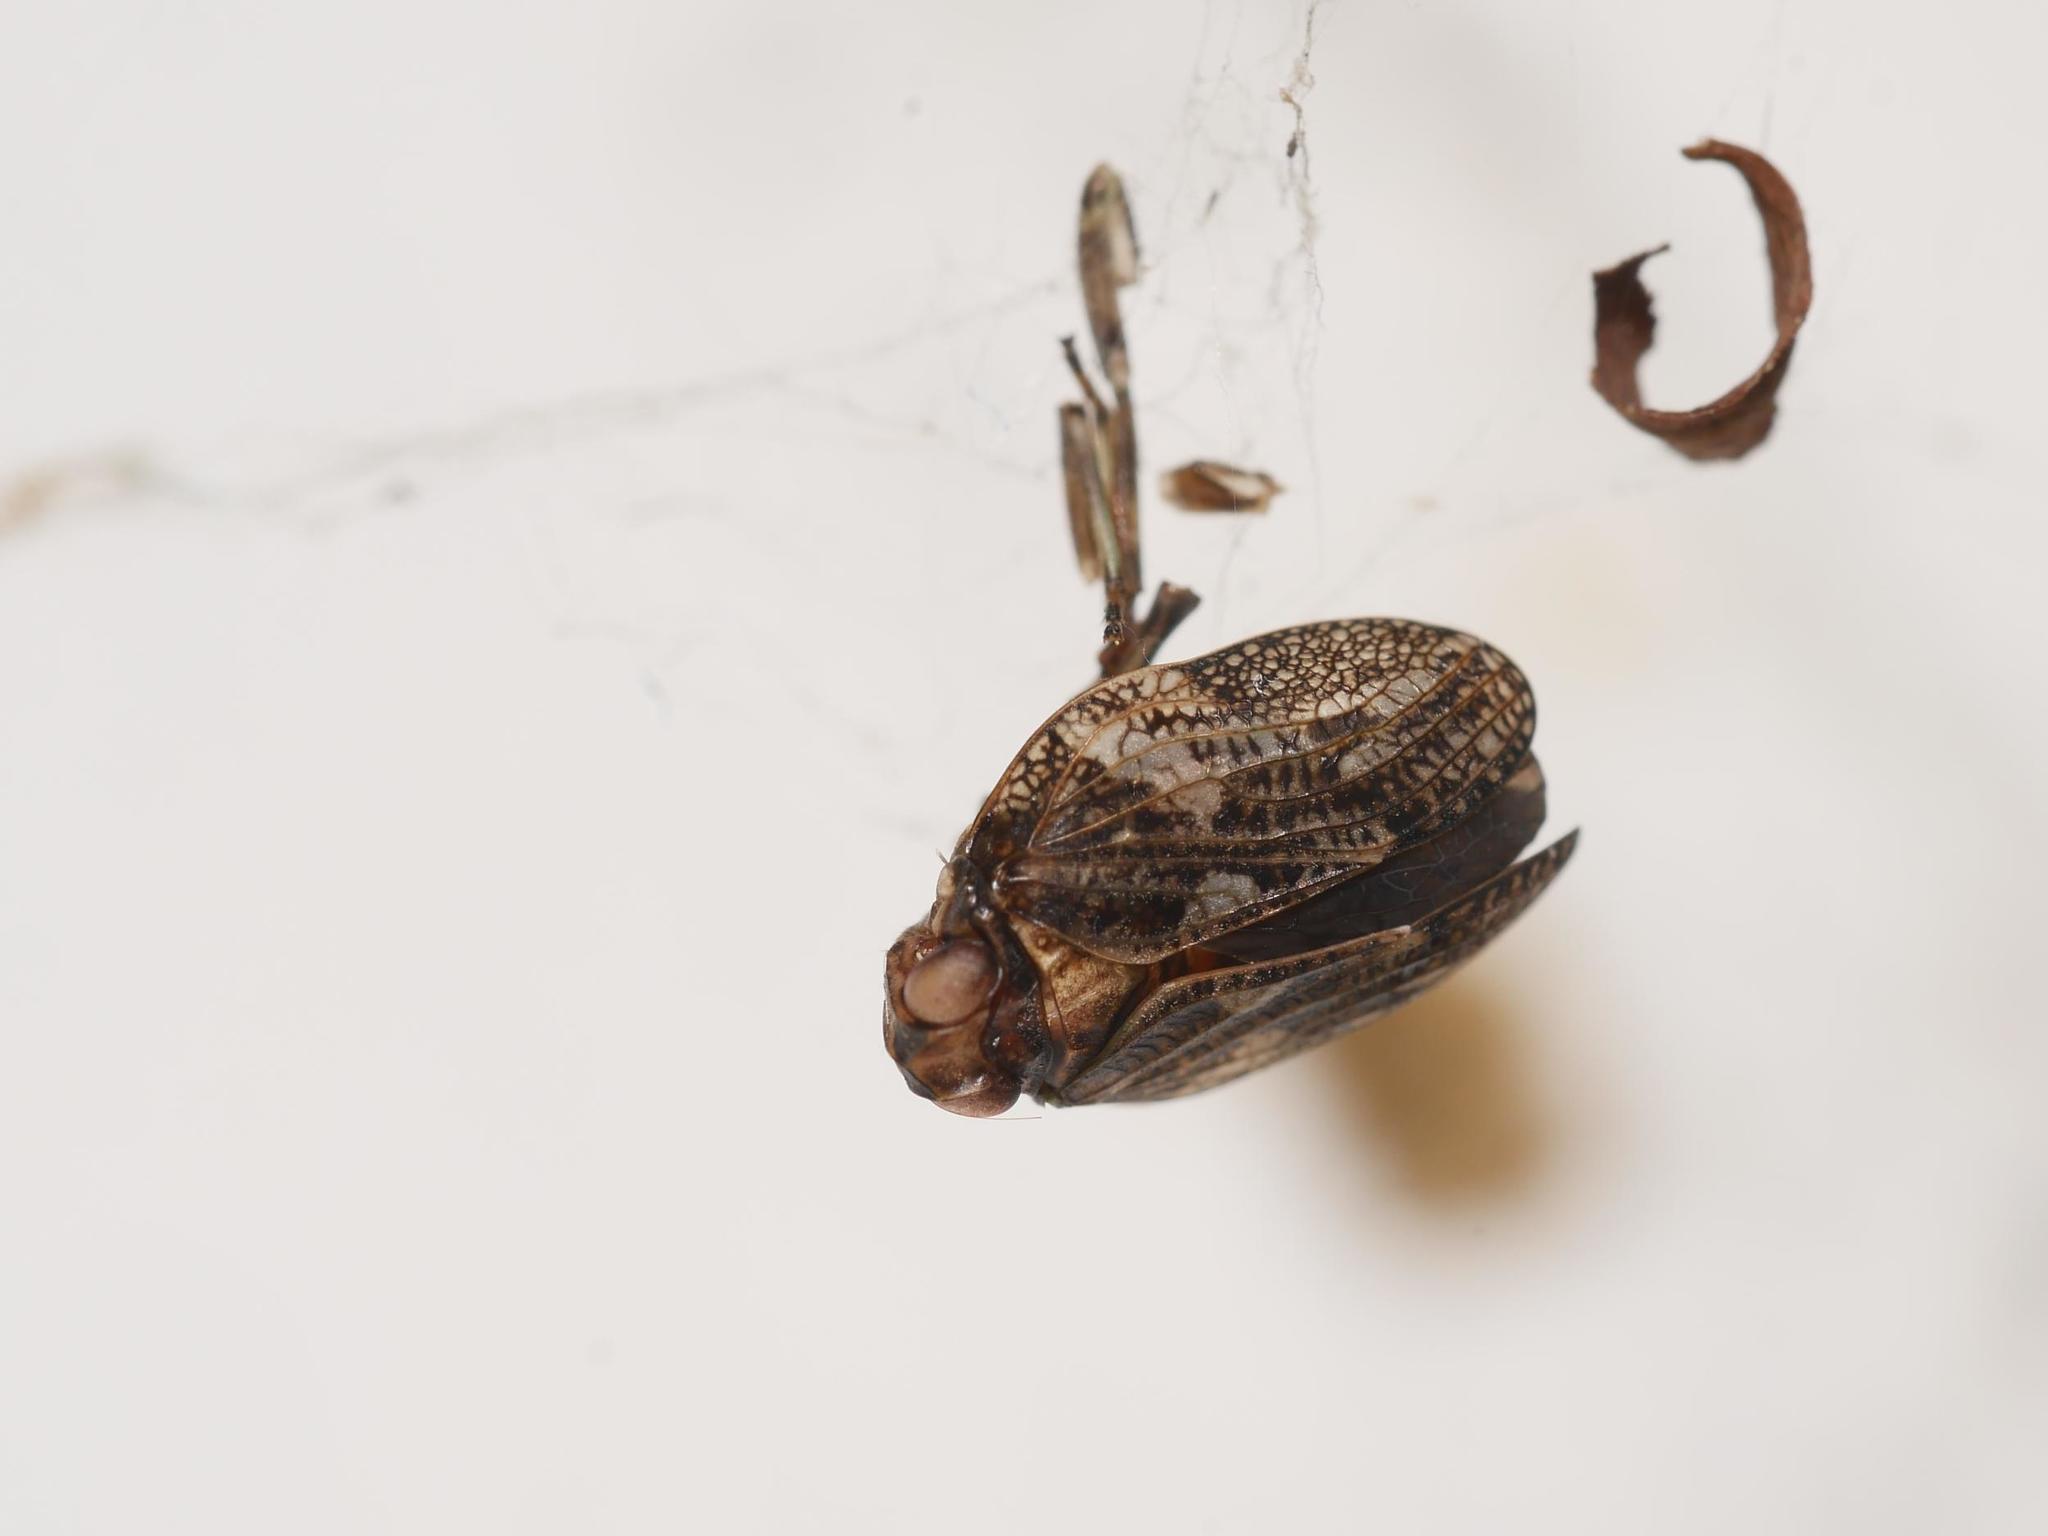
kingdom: Animalia
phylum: Arthropoda
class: Insecta
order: Hemiptera
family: Issidae
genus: Issus
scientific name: Issus coleoptratus
